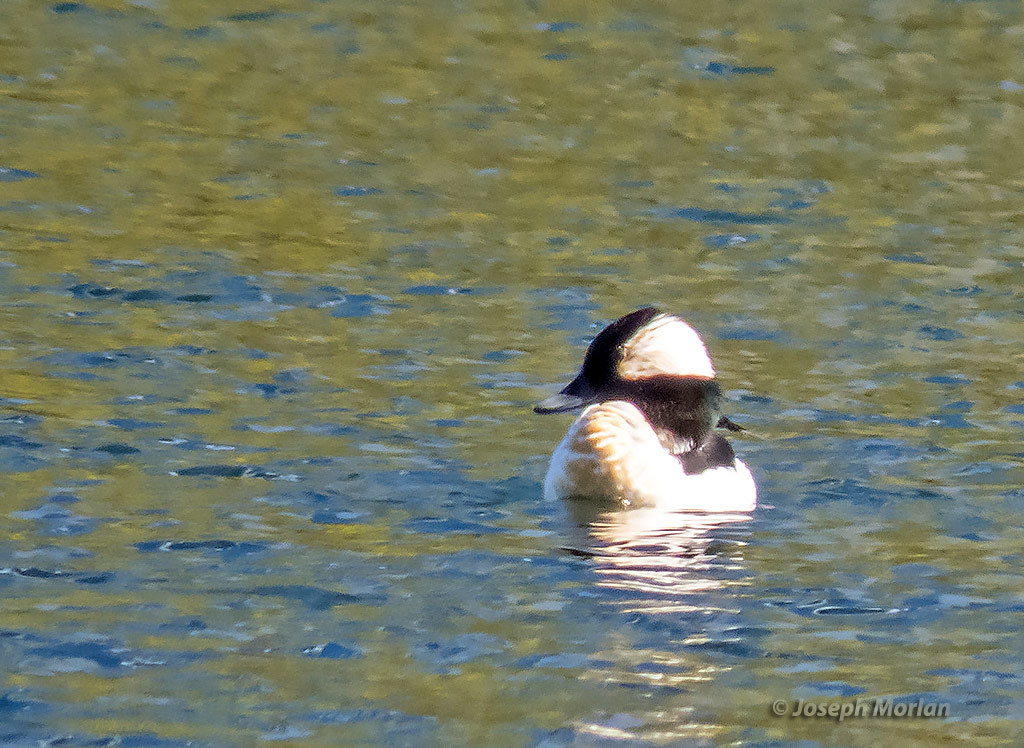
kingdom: Animalia
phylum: Chordata
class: Aves
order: Anseriformes
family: Anatidae
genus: Bucephala
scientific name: Bucephala albeola
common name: Bufflehead
